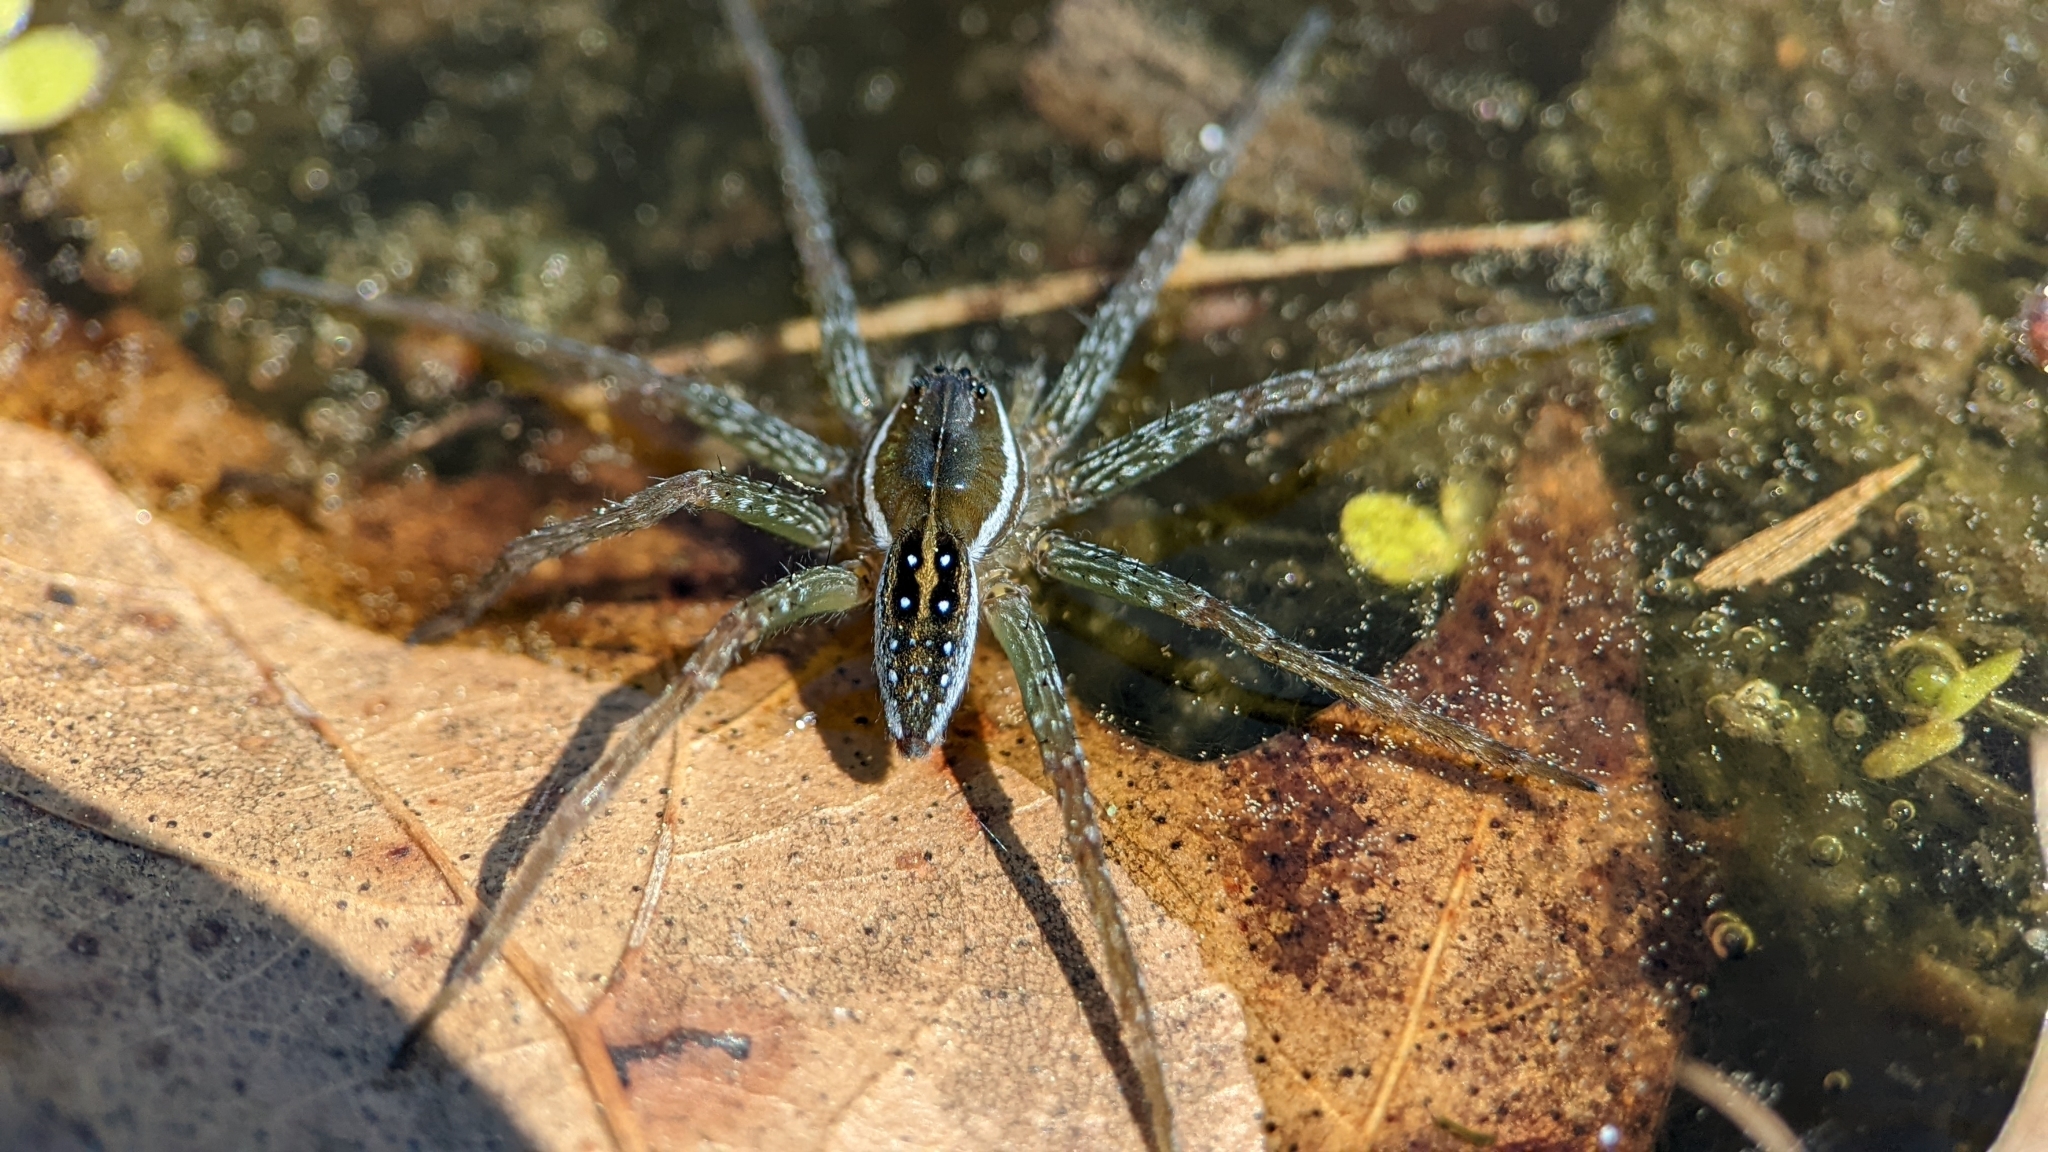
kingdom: Animalia
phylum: Arthropoda
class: Arachnida
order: Araneae
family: Pisauridae
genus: Dolomedes
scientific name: Dolomedes triton
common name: Six-spotted fishing spider
